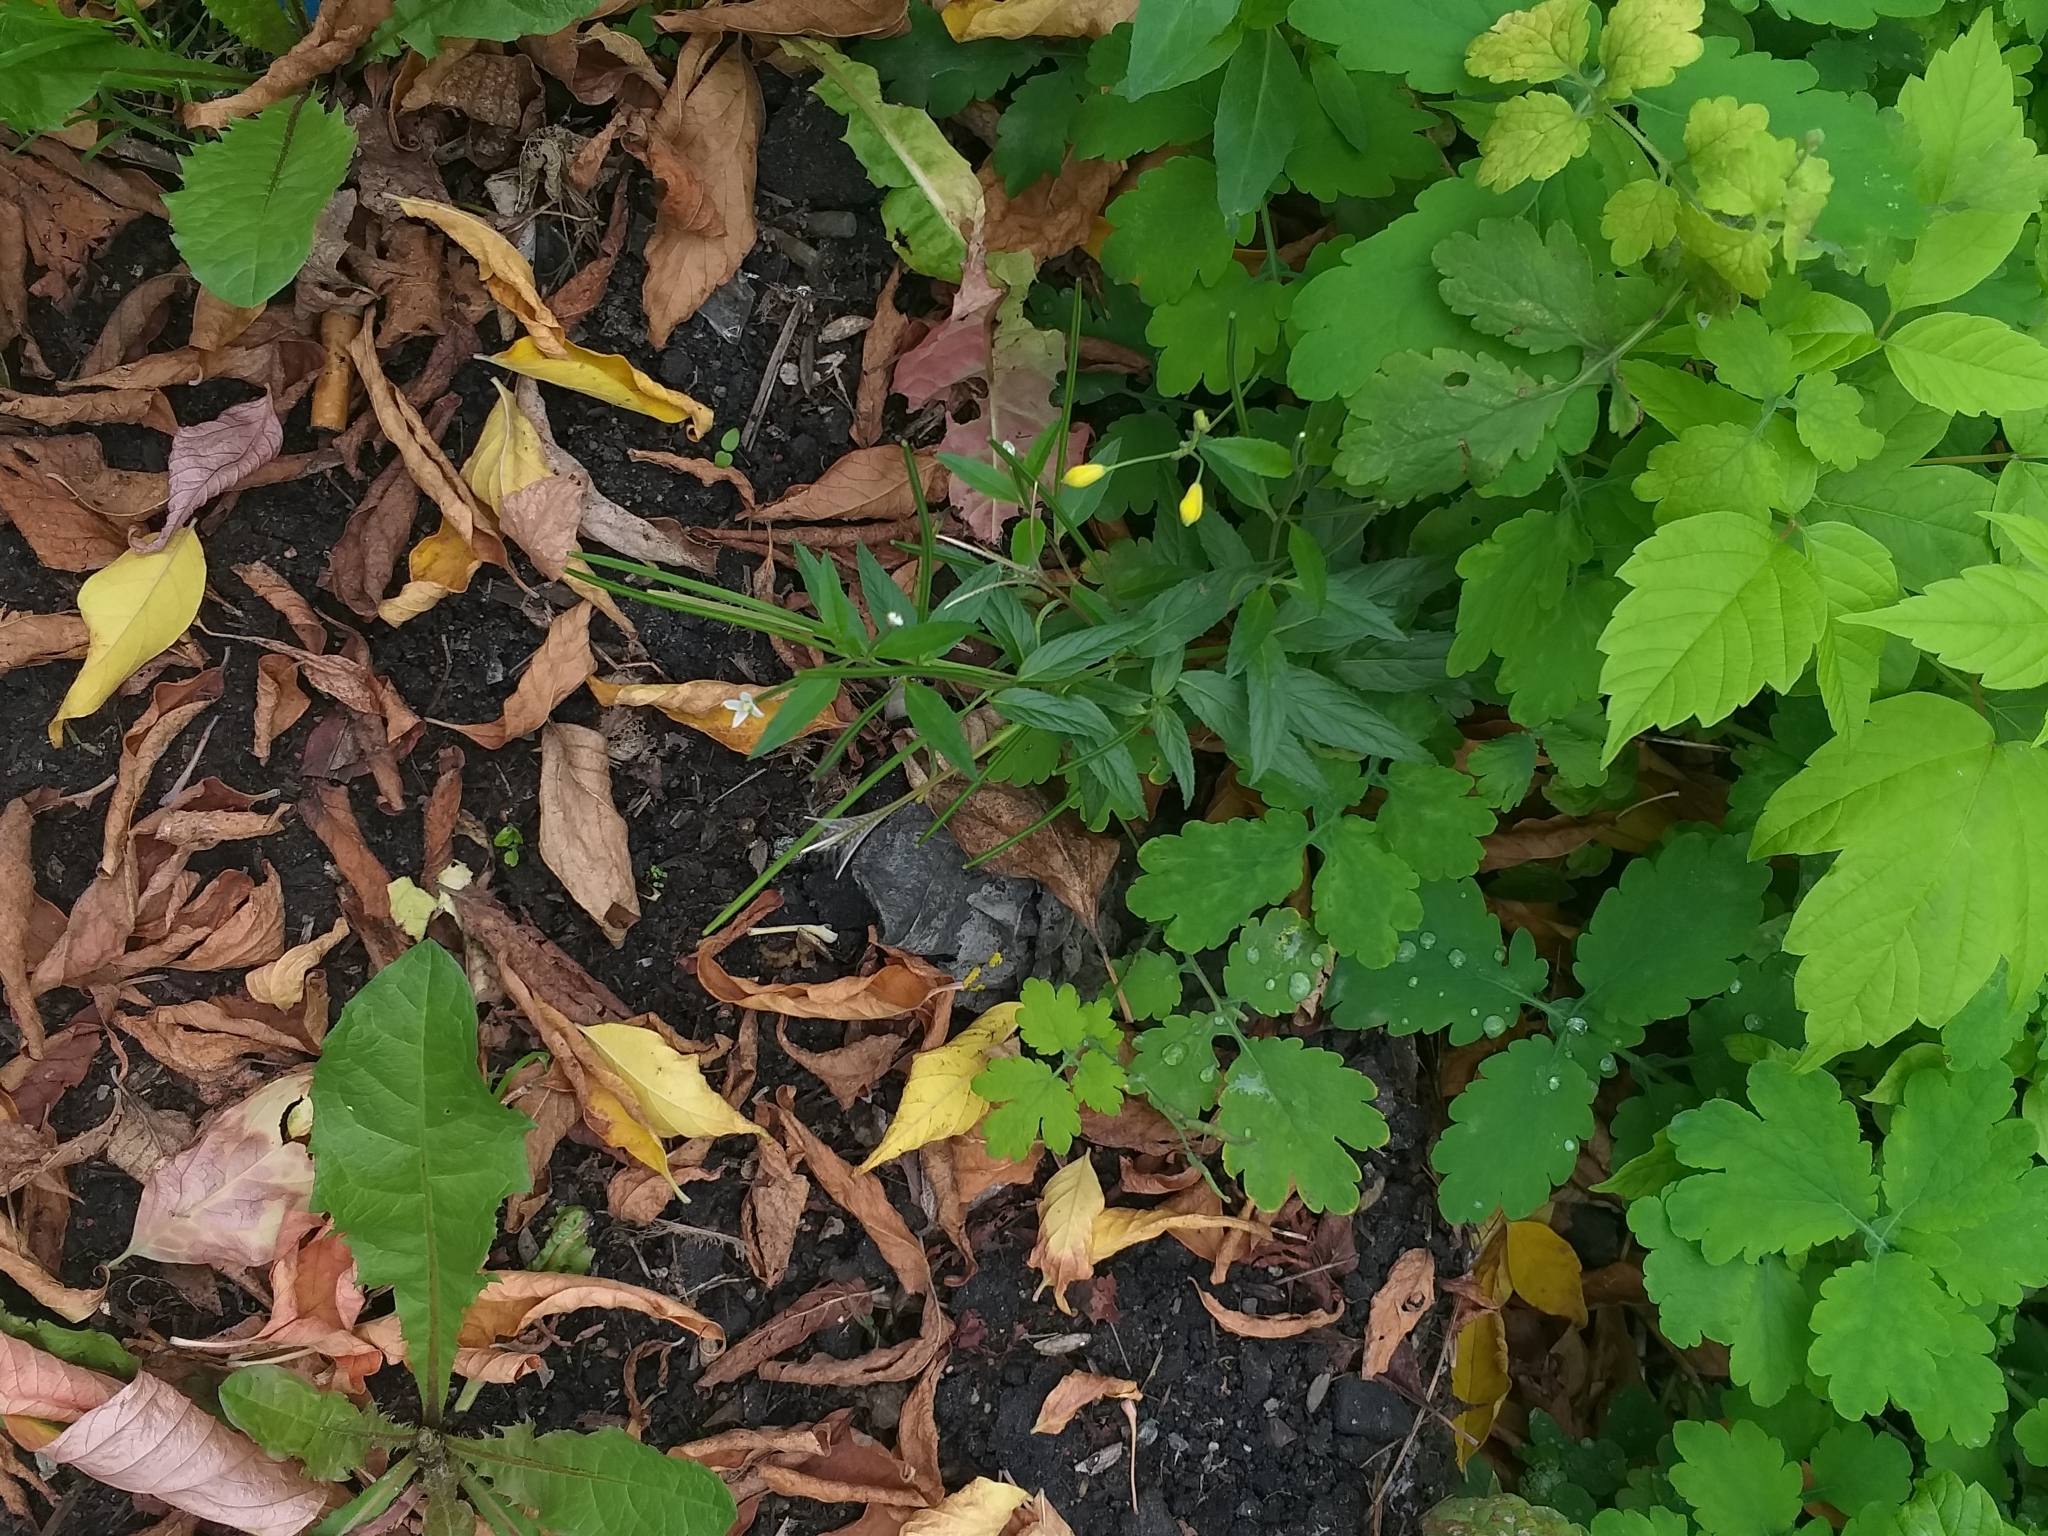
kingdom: Plantae
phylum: Tracheophyta
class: Magnoliopsida
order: Myrtales
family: Onagraceae
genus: Epilobium
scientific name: Epilobium pseudorubescens
